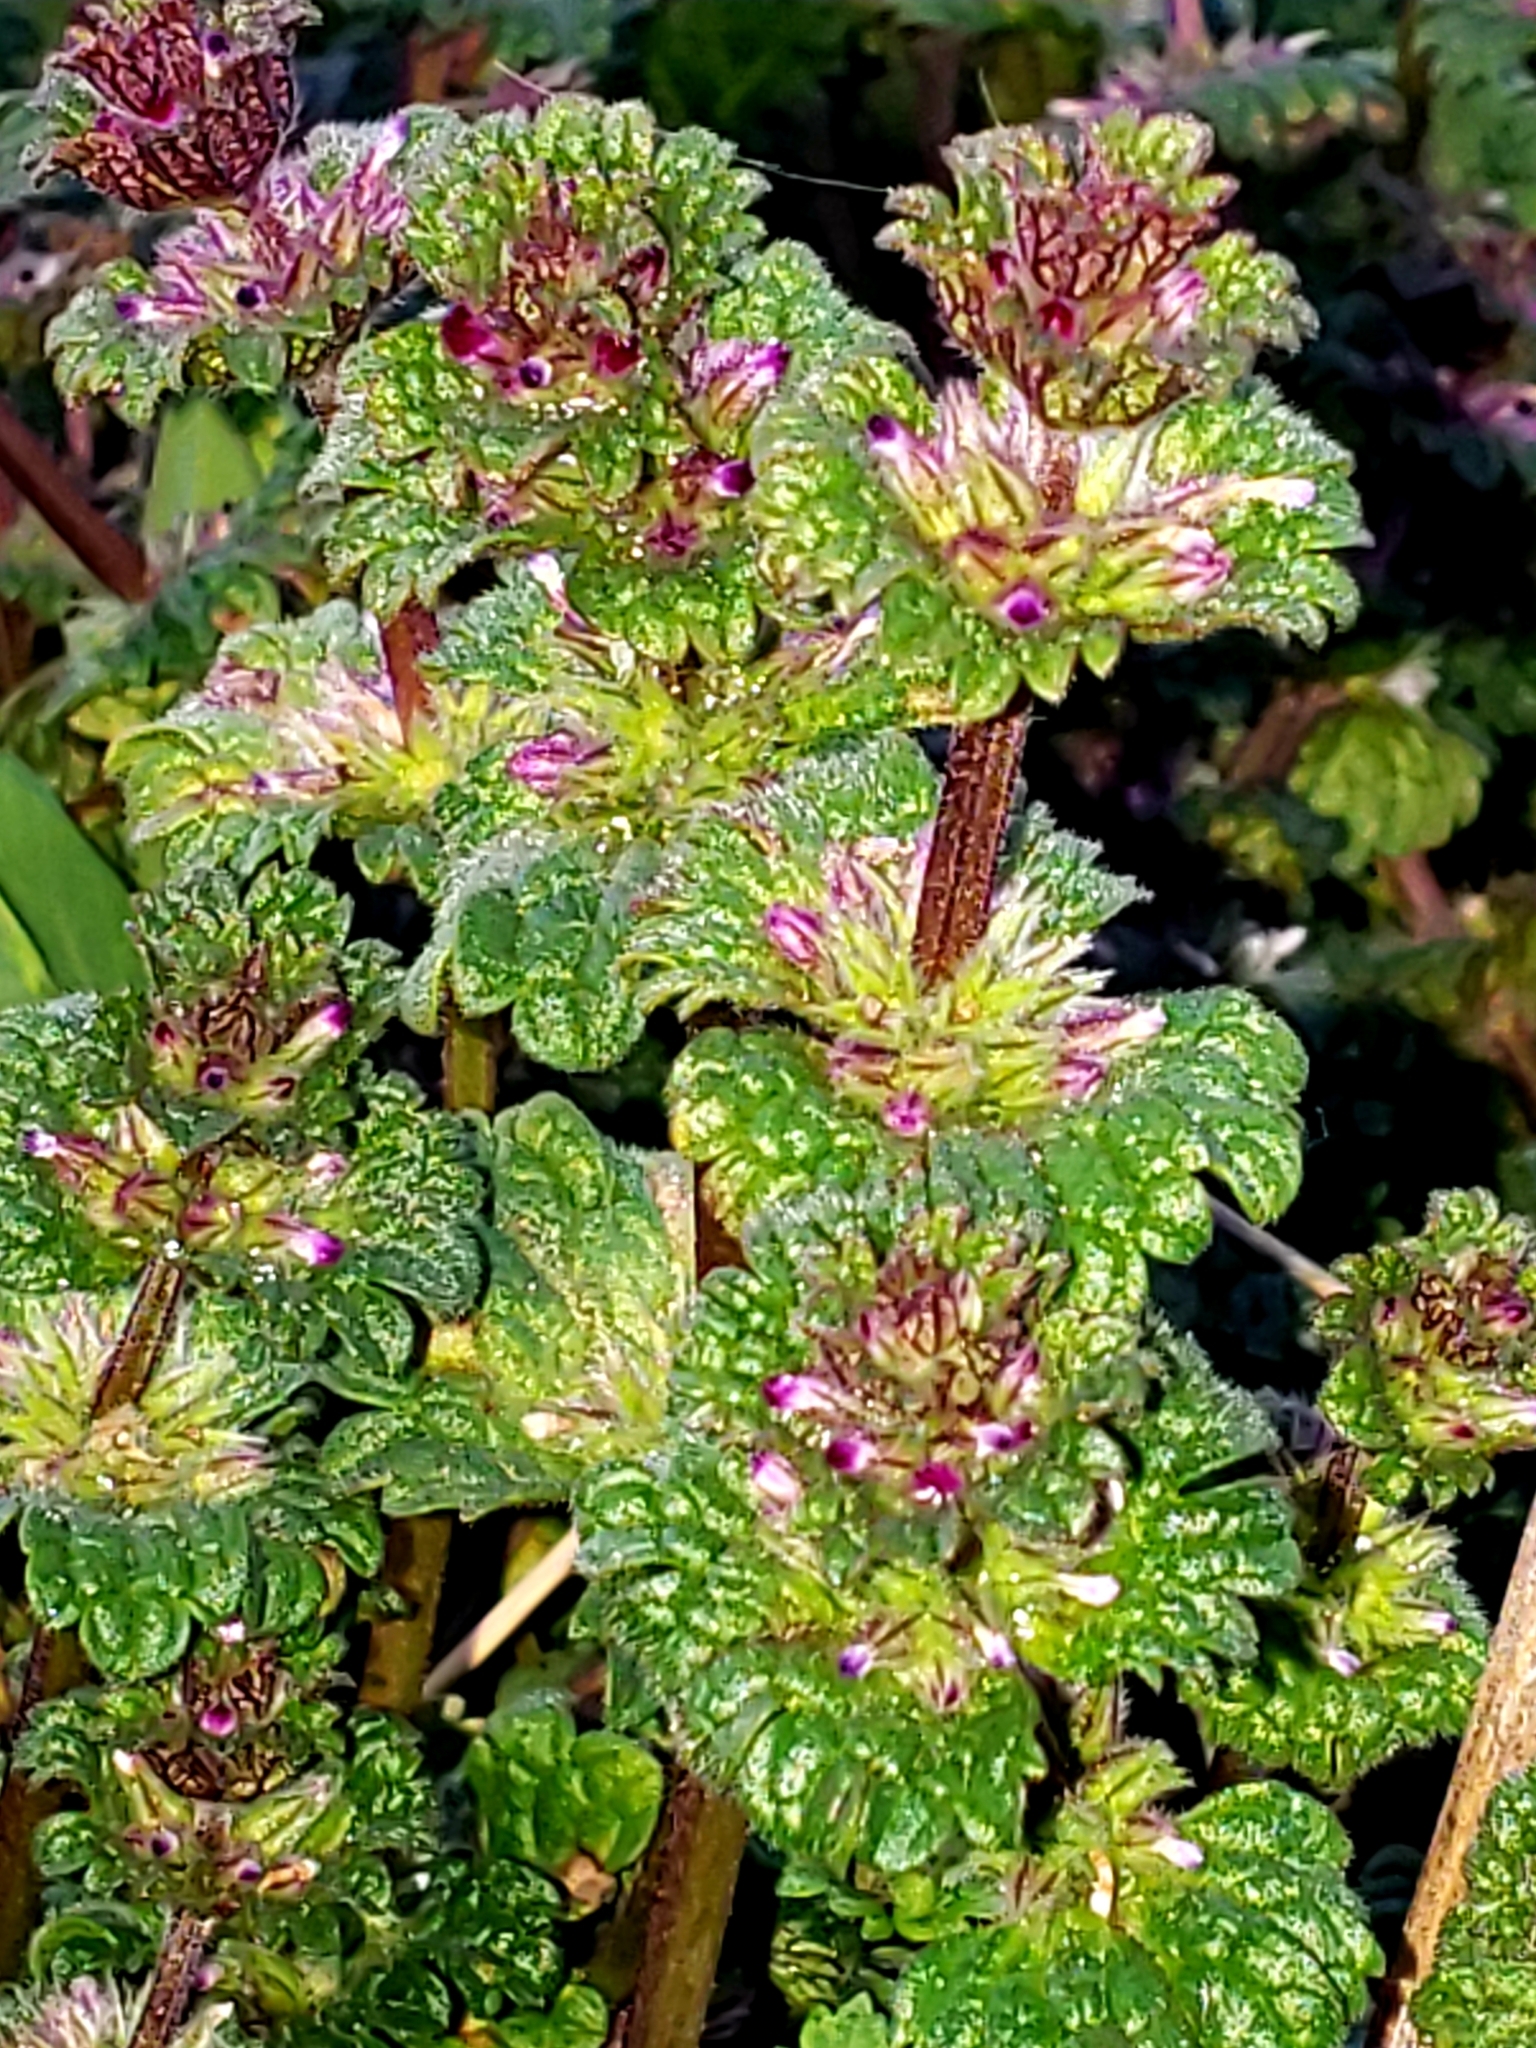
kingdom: Plantae
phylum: Tracheophyta
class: Magnoliopsida
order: Lamiales
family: Lamiaceae
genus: Lamium
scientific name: Lamium amplexicaule
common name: Henbit dead-nettle
